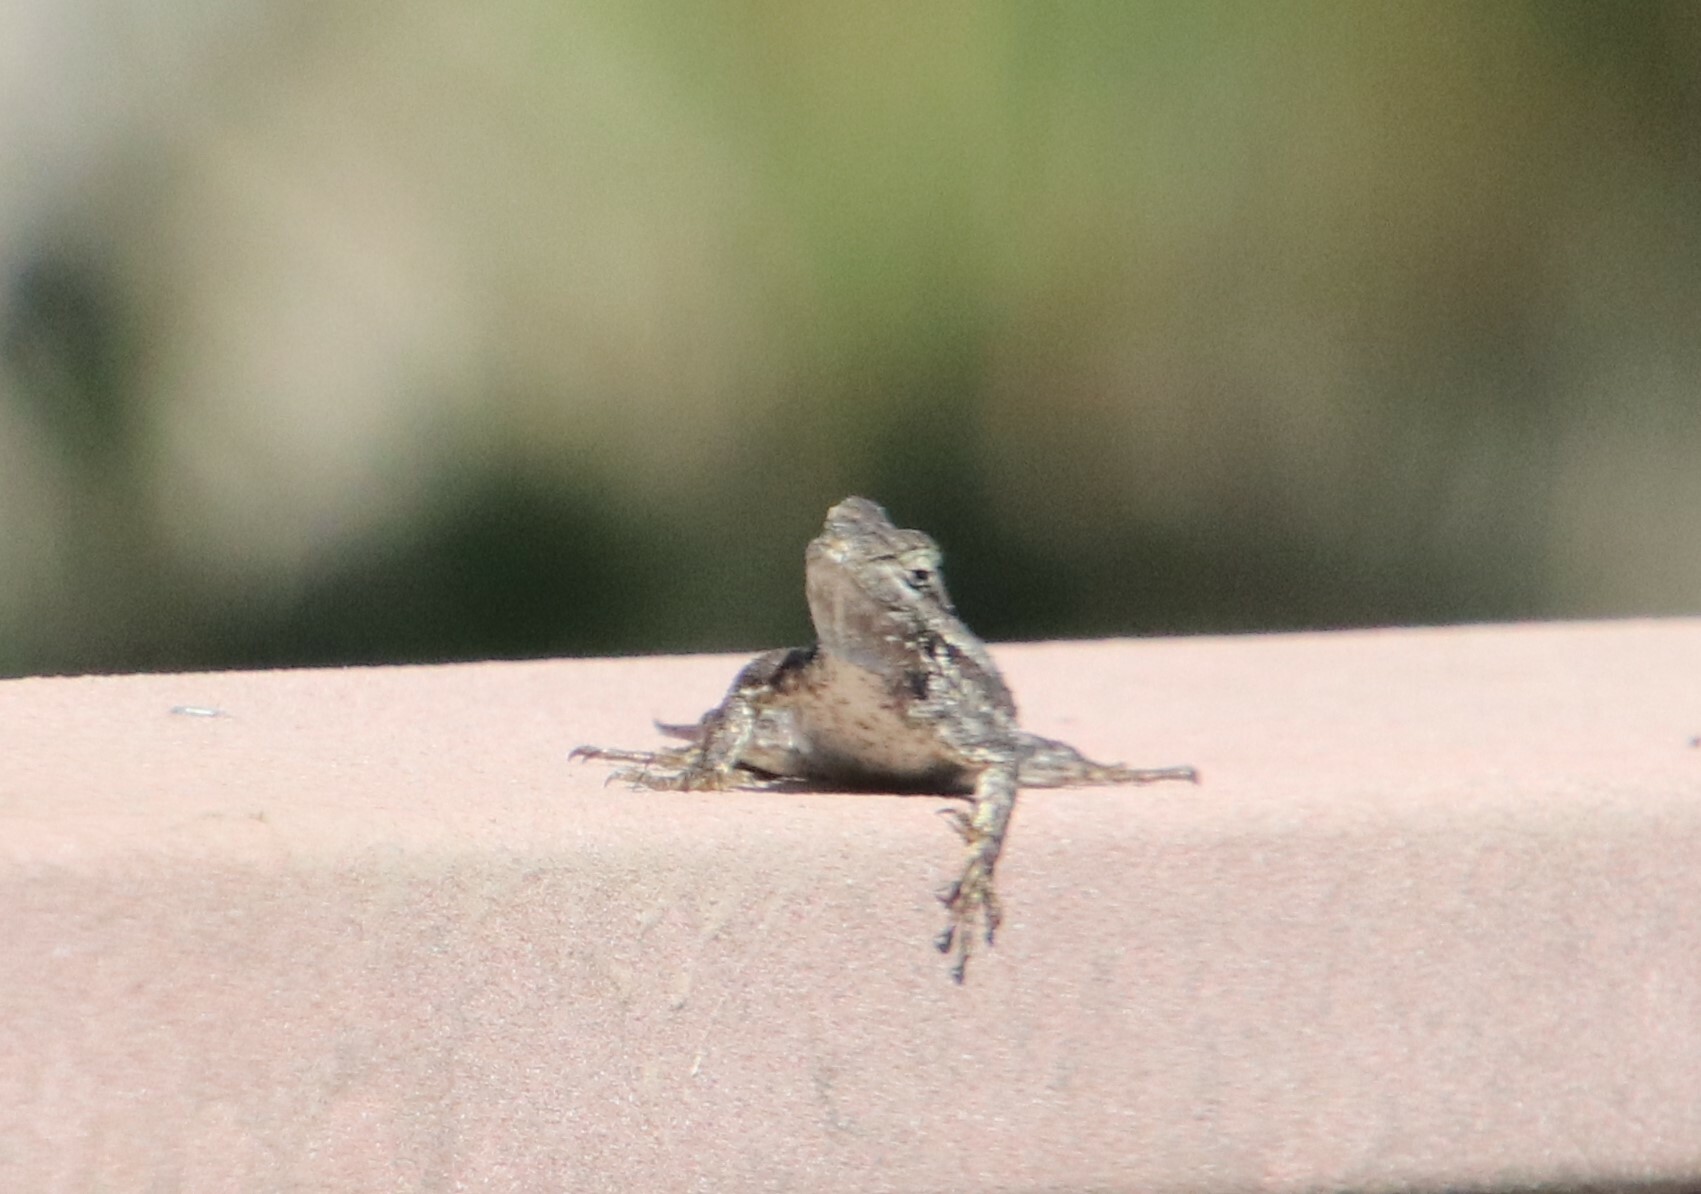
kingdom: Animalia
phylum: Chordata
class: Squamata
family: Phrynosomatidae
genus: Sceloporus
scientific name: Sceloporus occidentalis
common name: Western fence lizard
